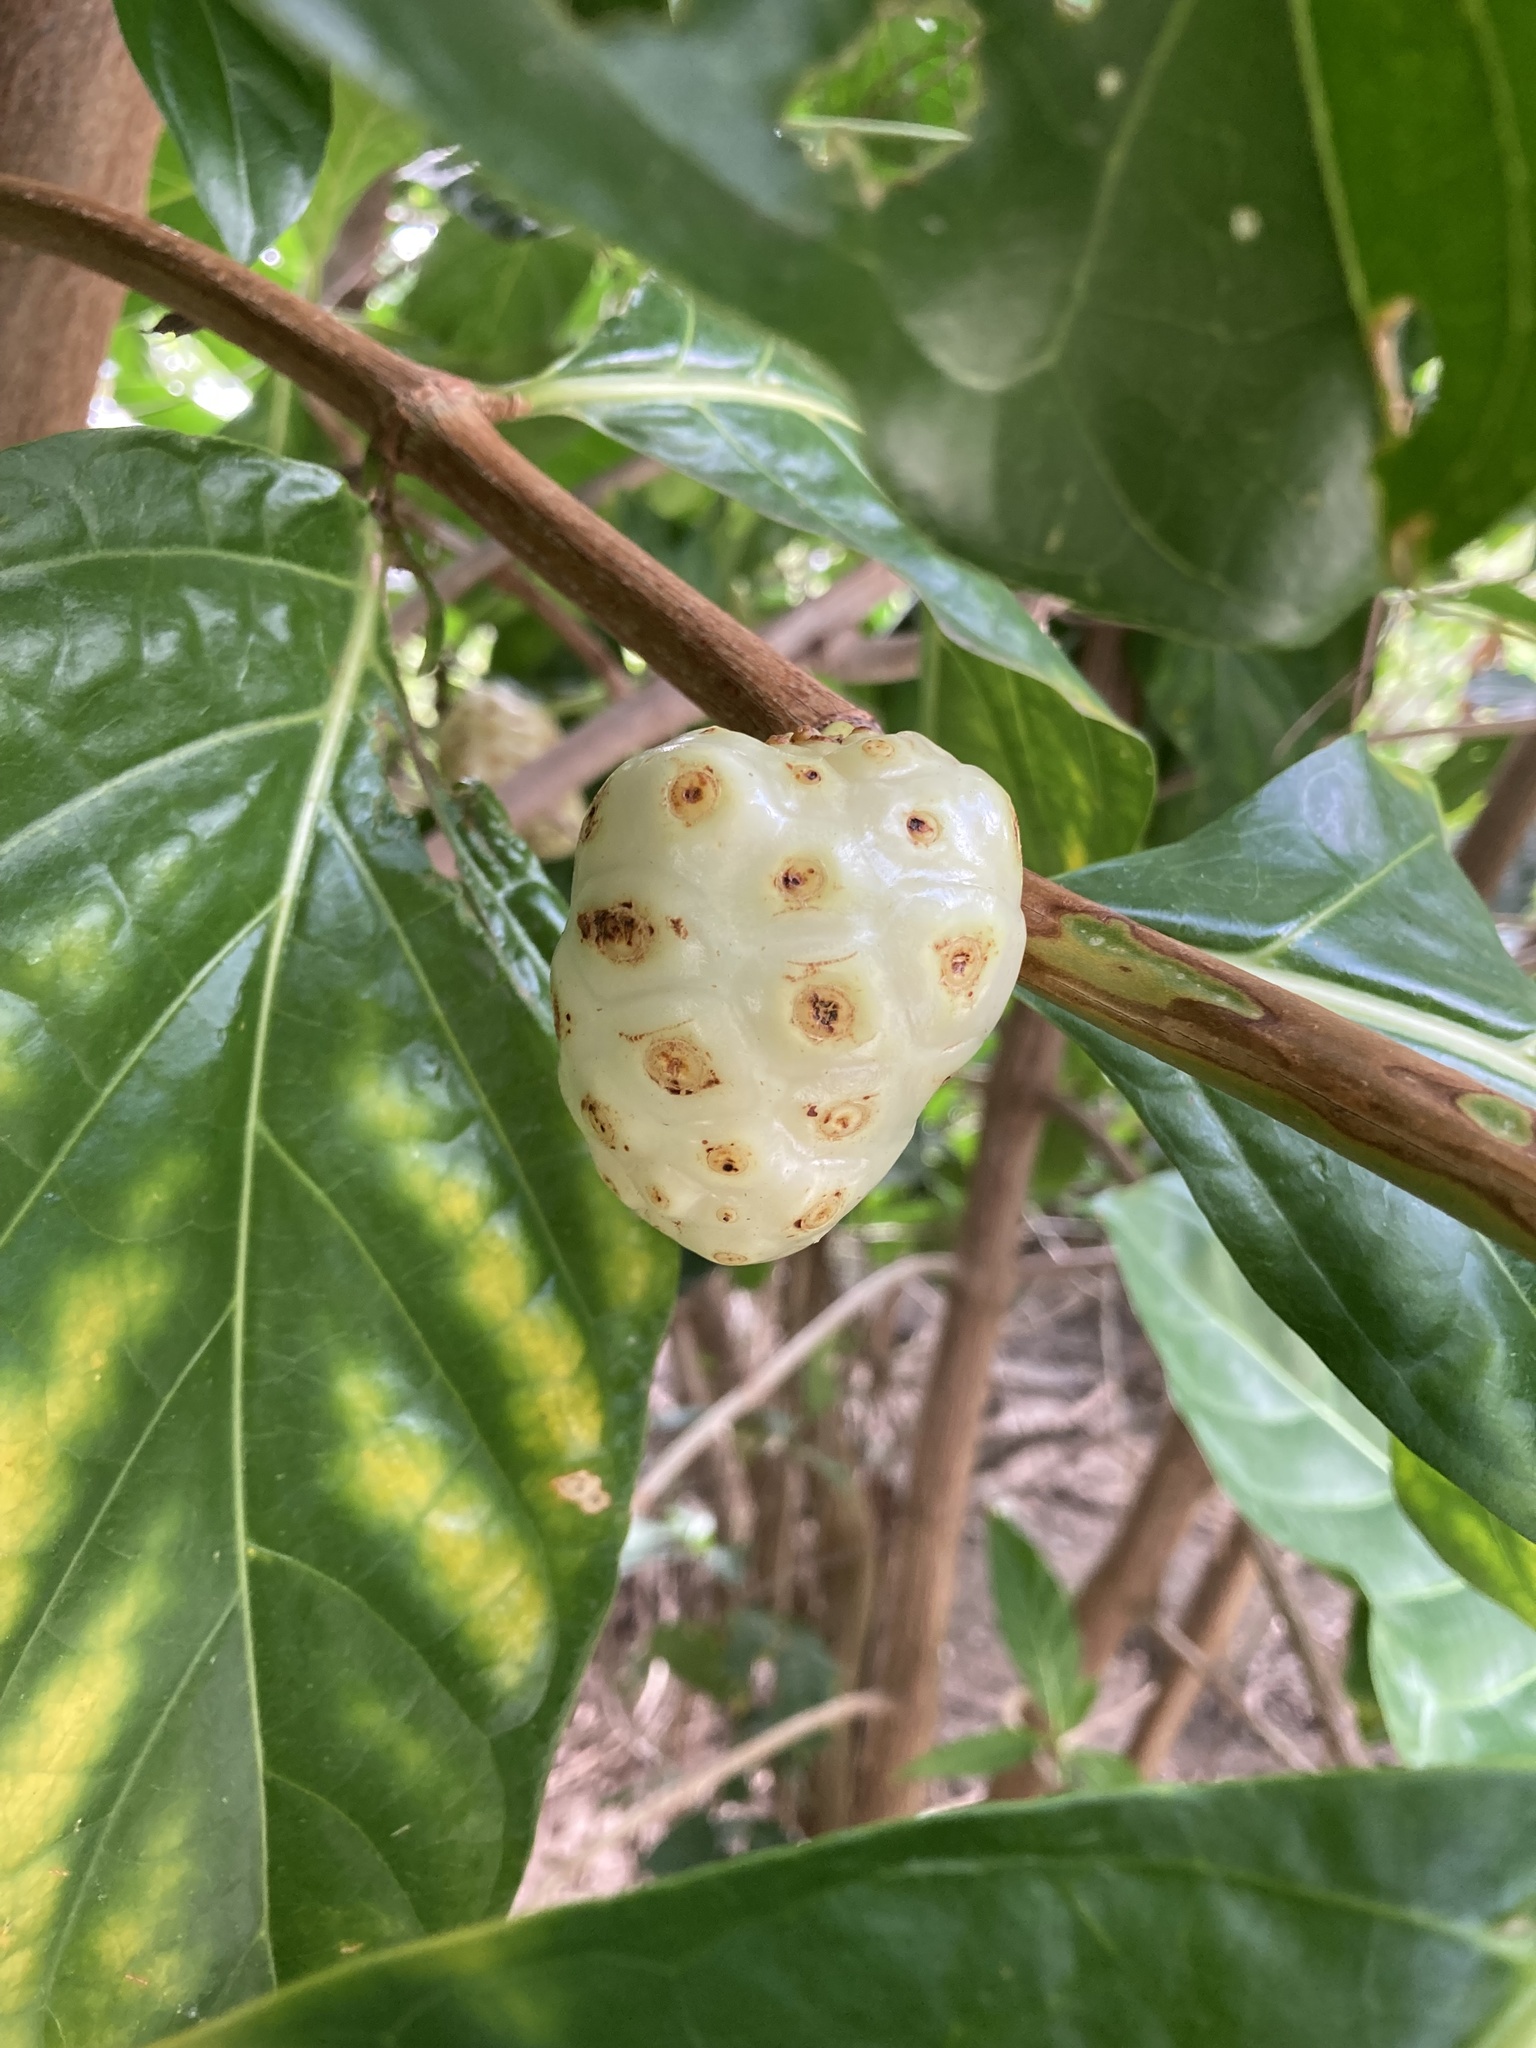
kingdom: Plantae
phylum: Tracheophyta
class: Magnoliopsida
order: Gentianales
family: Rubiaceae
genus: Morinda
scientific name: Morinda citrifolia
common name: Indian-mulberry
